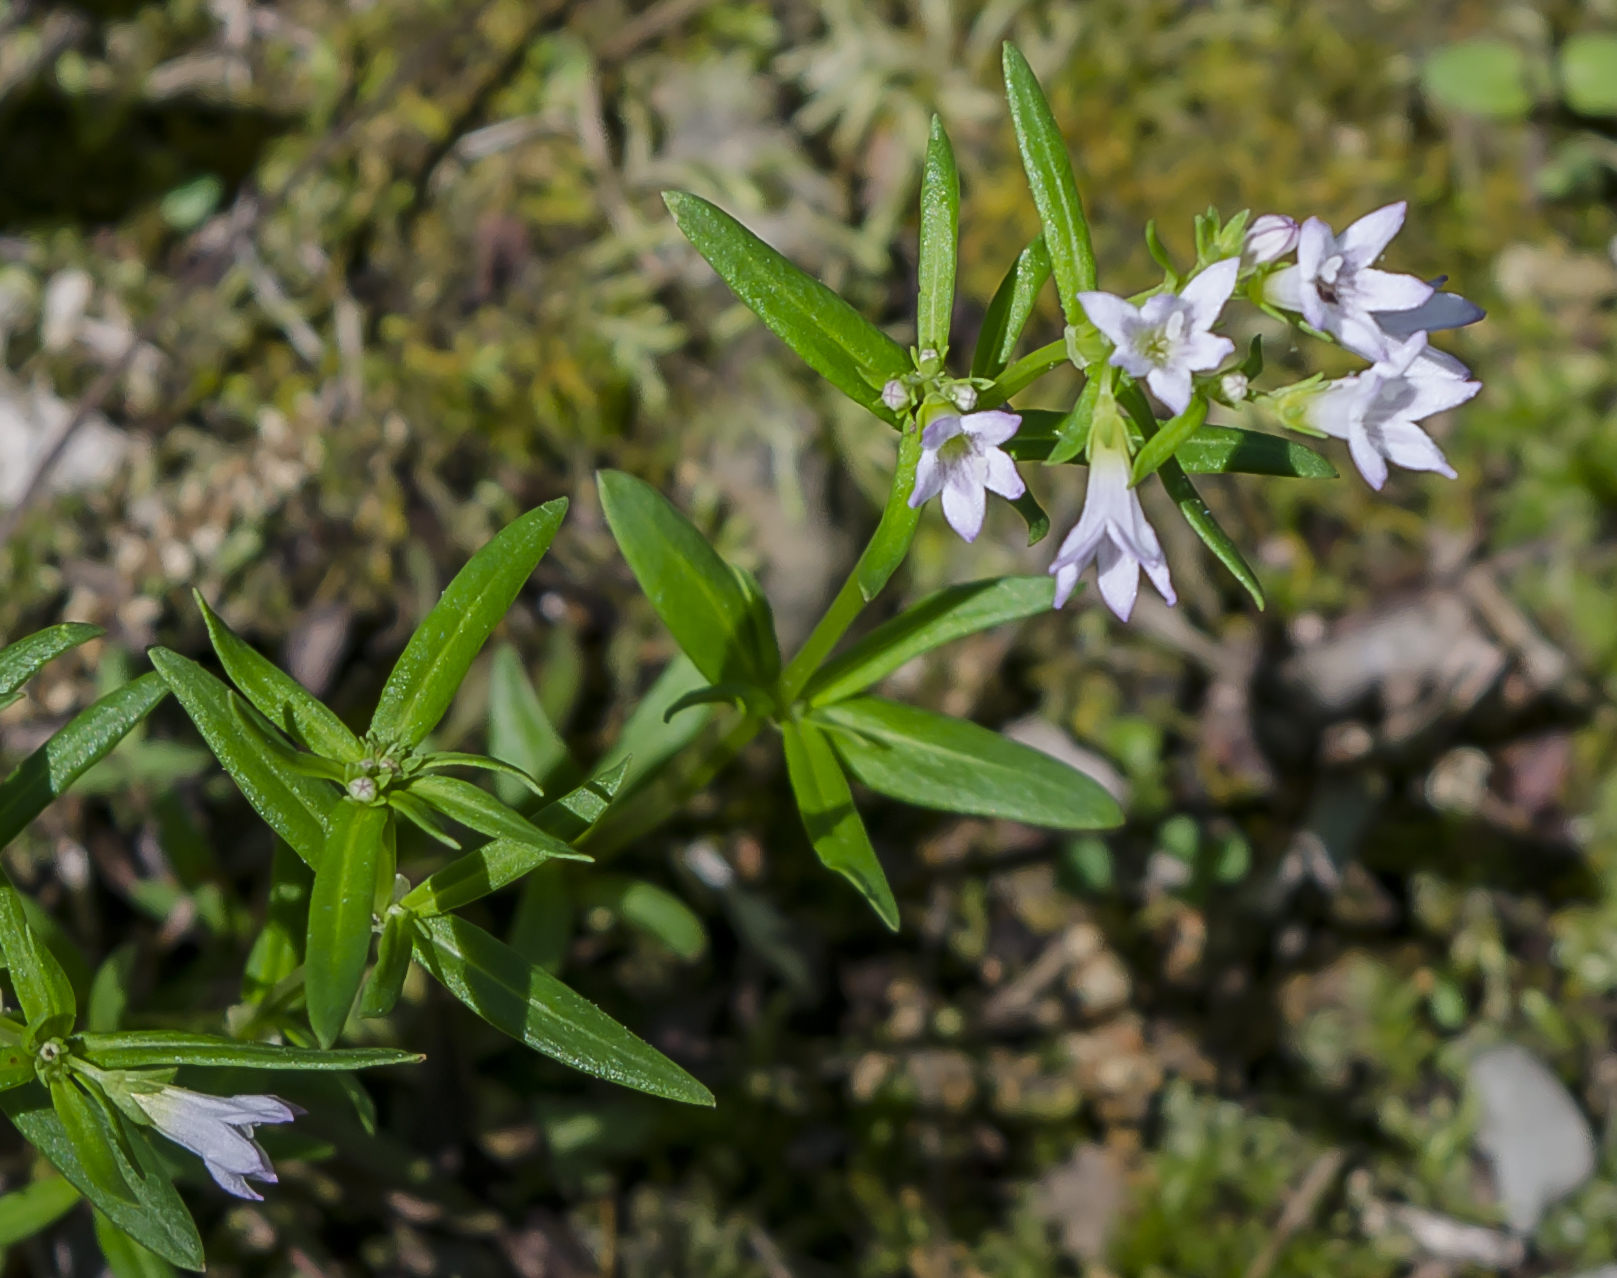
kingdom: Plantae
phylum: Tracheophyta
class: Magnoliopsida
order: Gentianales
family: Rubiaceae
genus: Houstonia
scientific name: Houstonia longifolia
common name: Long-leaved bluets
